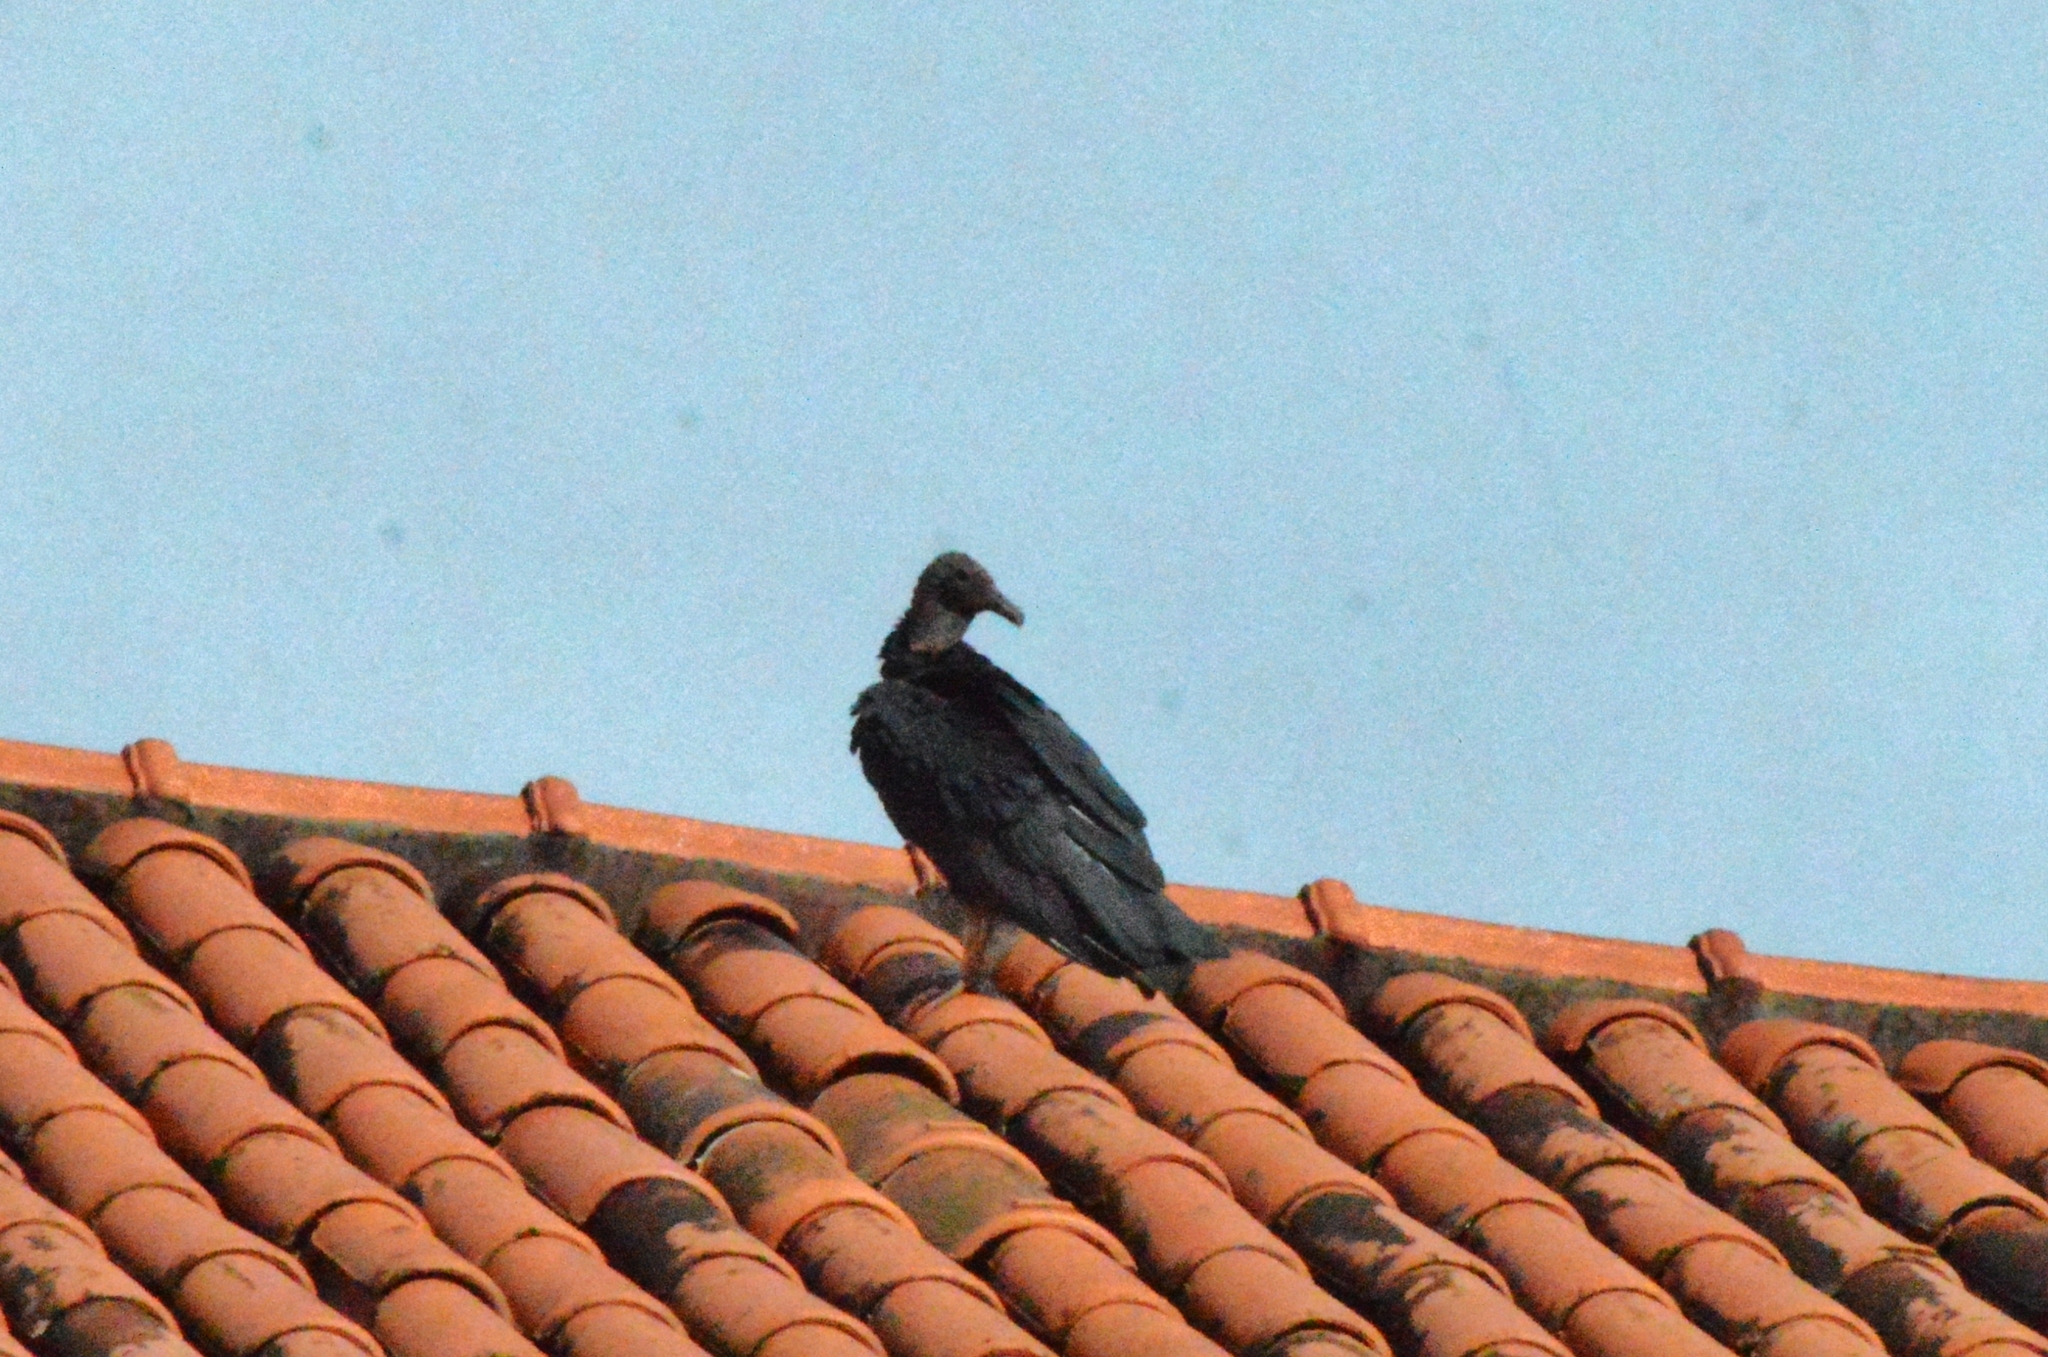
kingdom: Animalia
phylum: Chordata
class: Aves
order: Accipitriformes
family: Cathartidae
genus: Coragyps
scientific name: Coragyps atratus
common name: Black vulture
